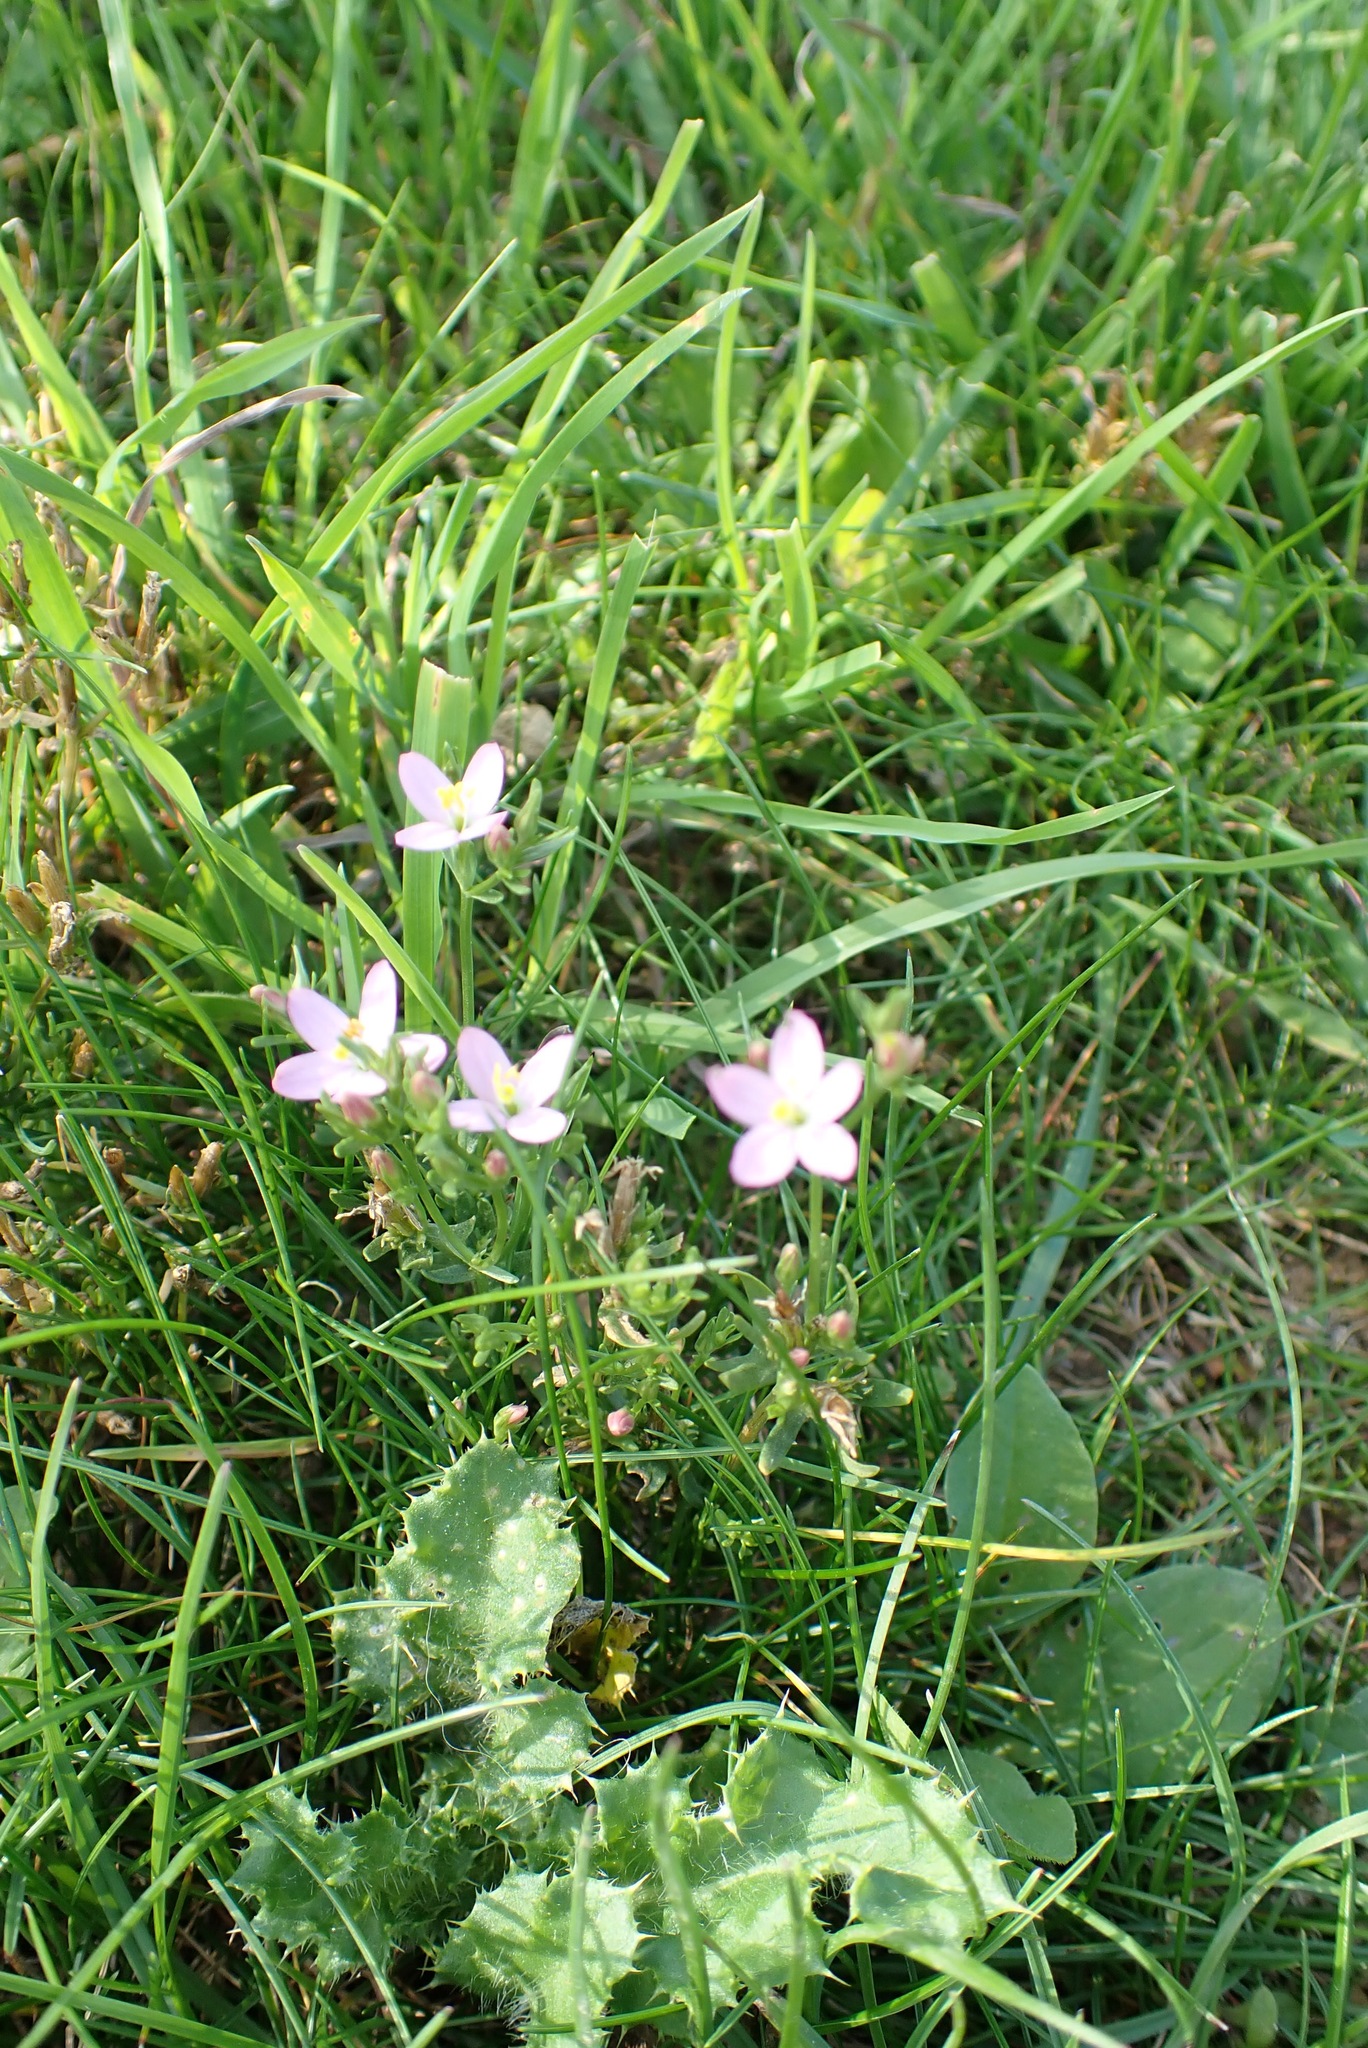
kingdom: Plantae
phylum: Tracheophyta
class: Magnoliopsida
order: Gentianales
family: Gentianaceae
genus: Centaurium
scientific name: Centaurium erythraea
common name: Common centaury
